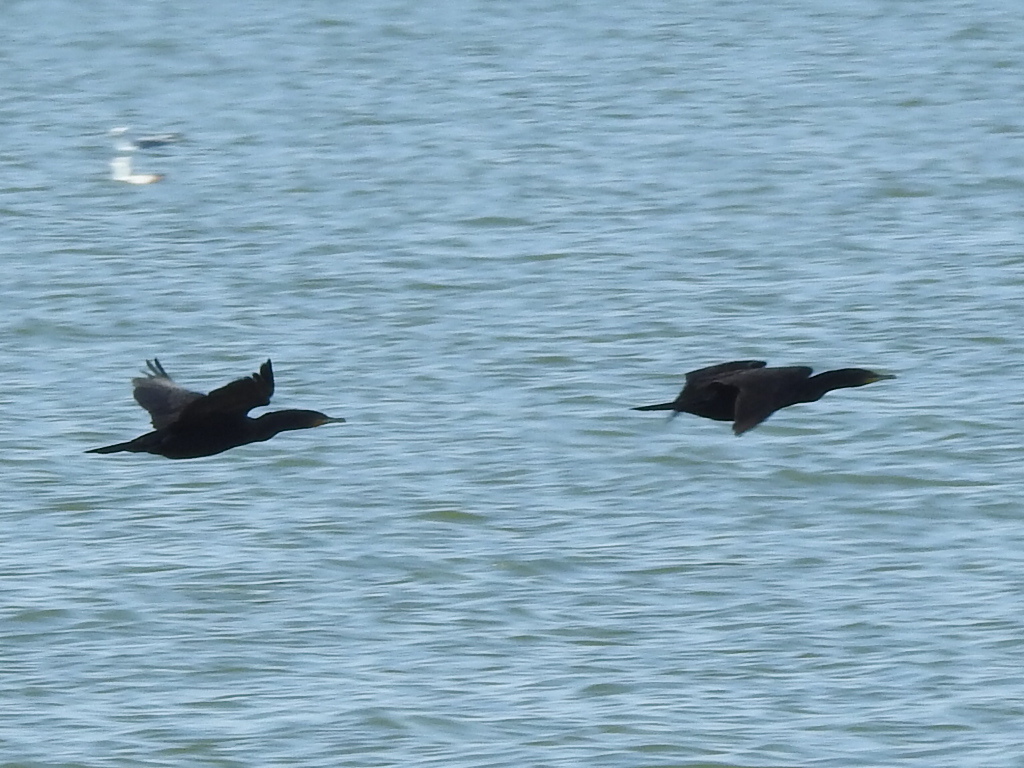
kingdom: Animalia
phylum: Chordata
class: Aves
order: Suliformes
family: Phalacrocoracidae
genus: Phalacrocorax
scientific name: Phalacrocorax auritus
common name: Double-crested cormorant
